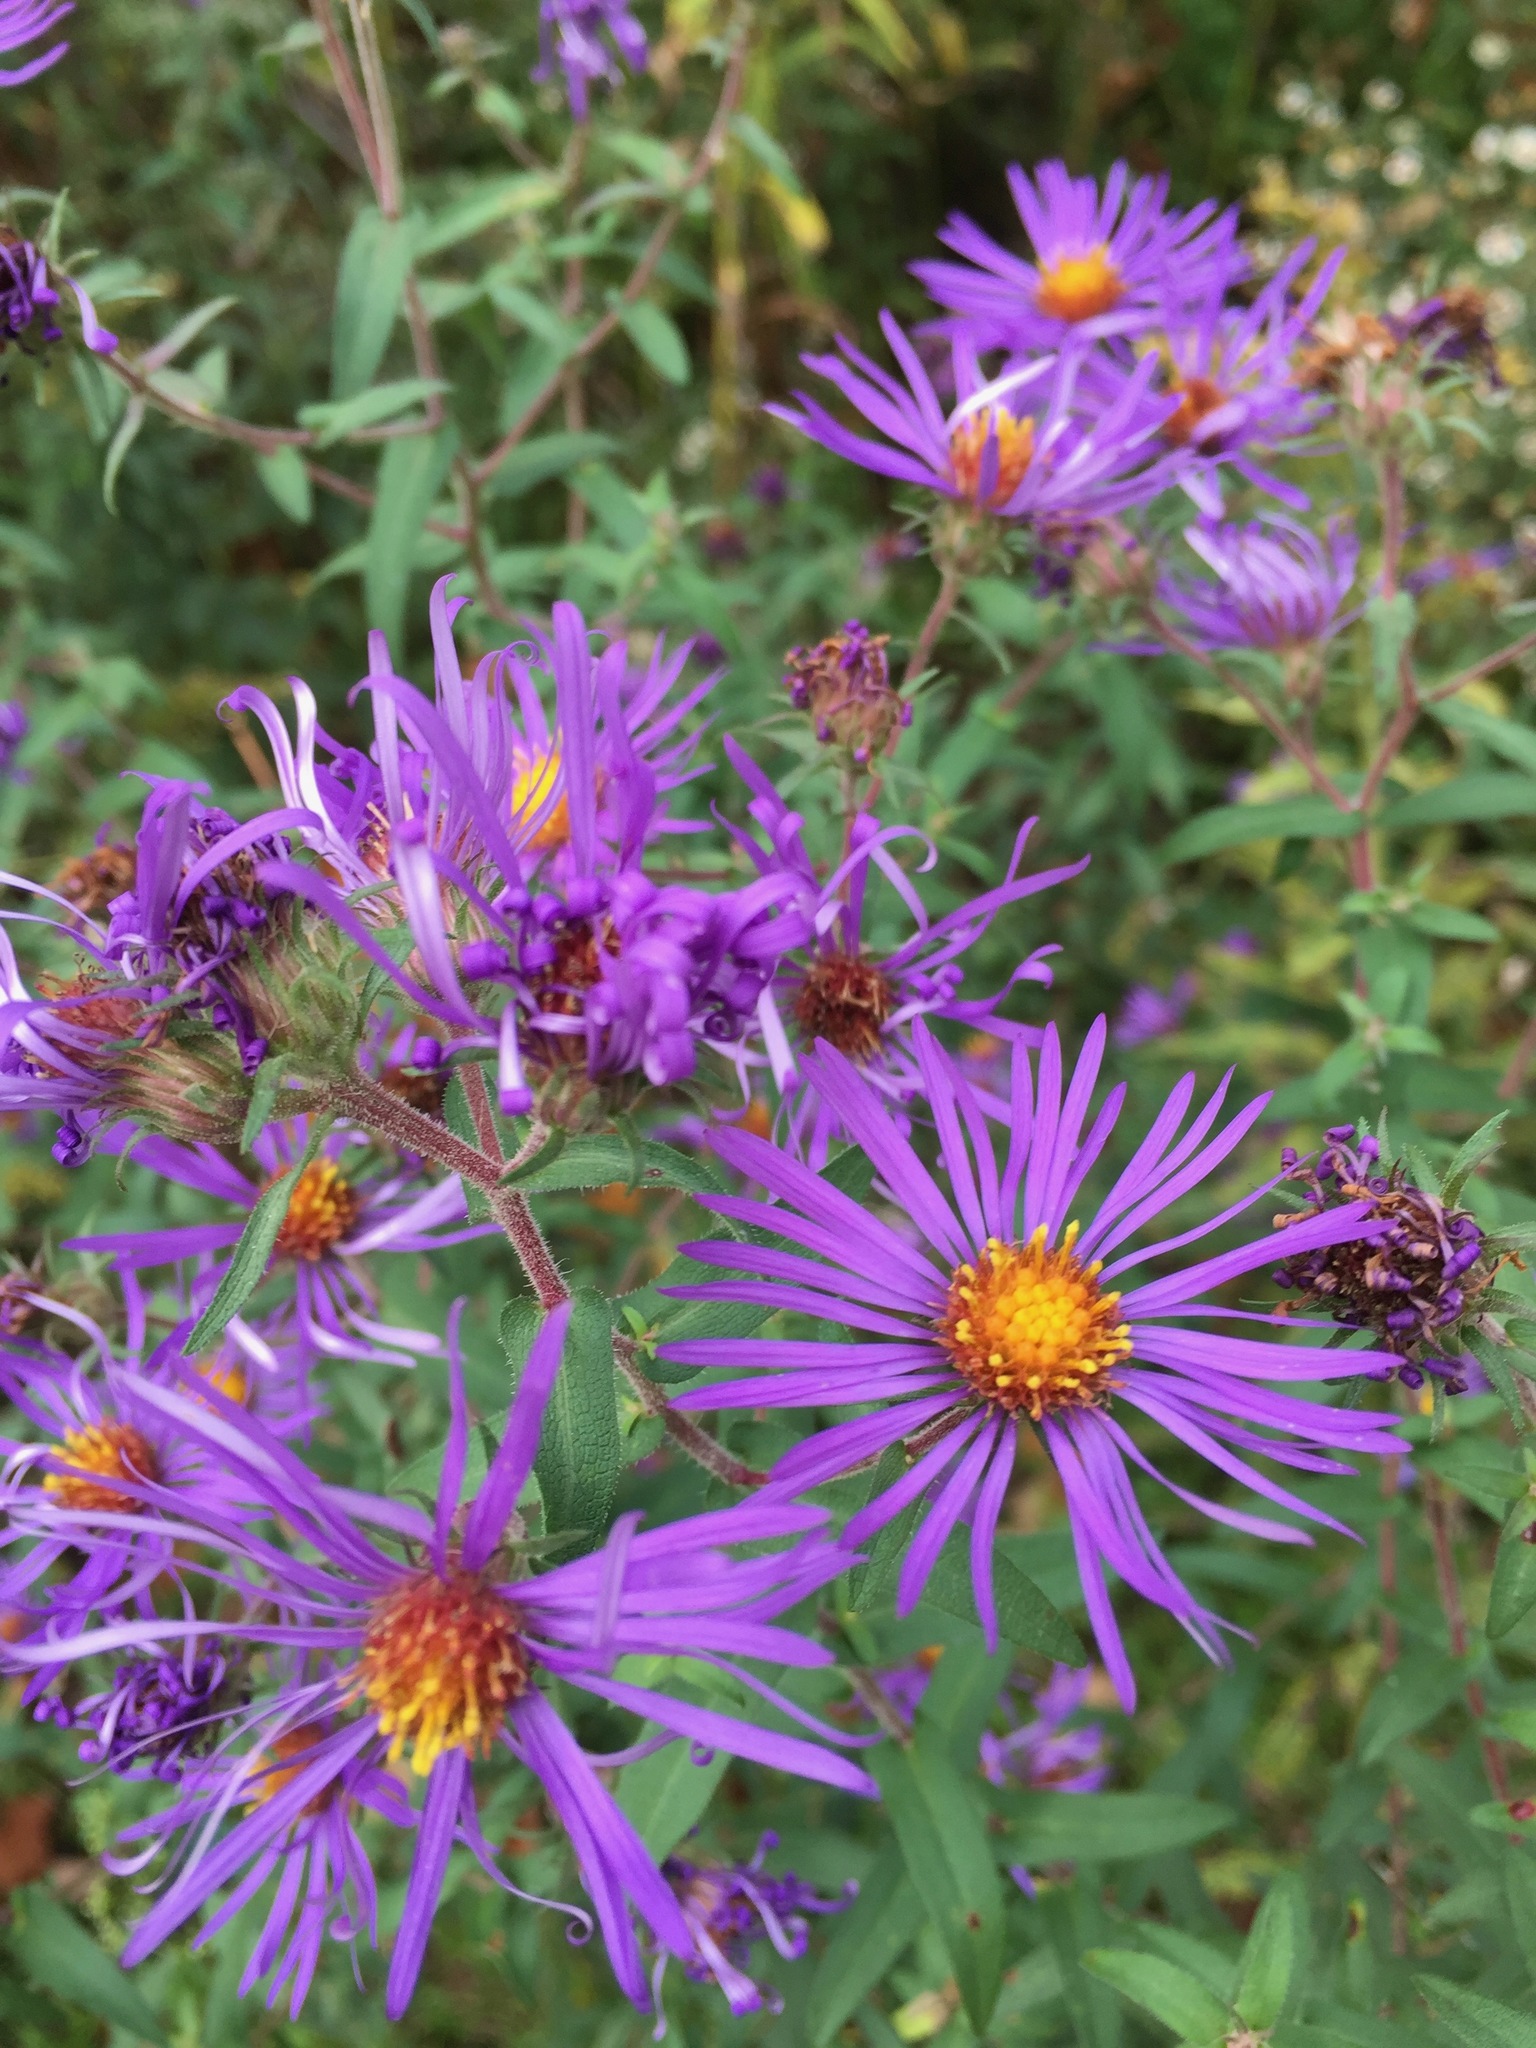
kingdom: Plantae
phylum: Tracheophyta
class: Magnoliopsida
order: Asterales
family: Asteraceae
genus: Symphyotrichum
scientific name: Symphyotrichum novae-angliae
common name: Michaelmas daisy
